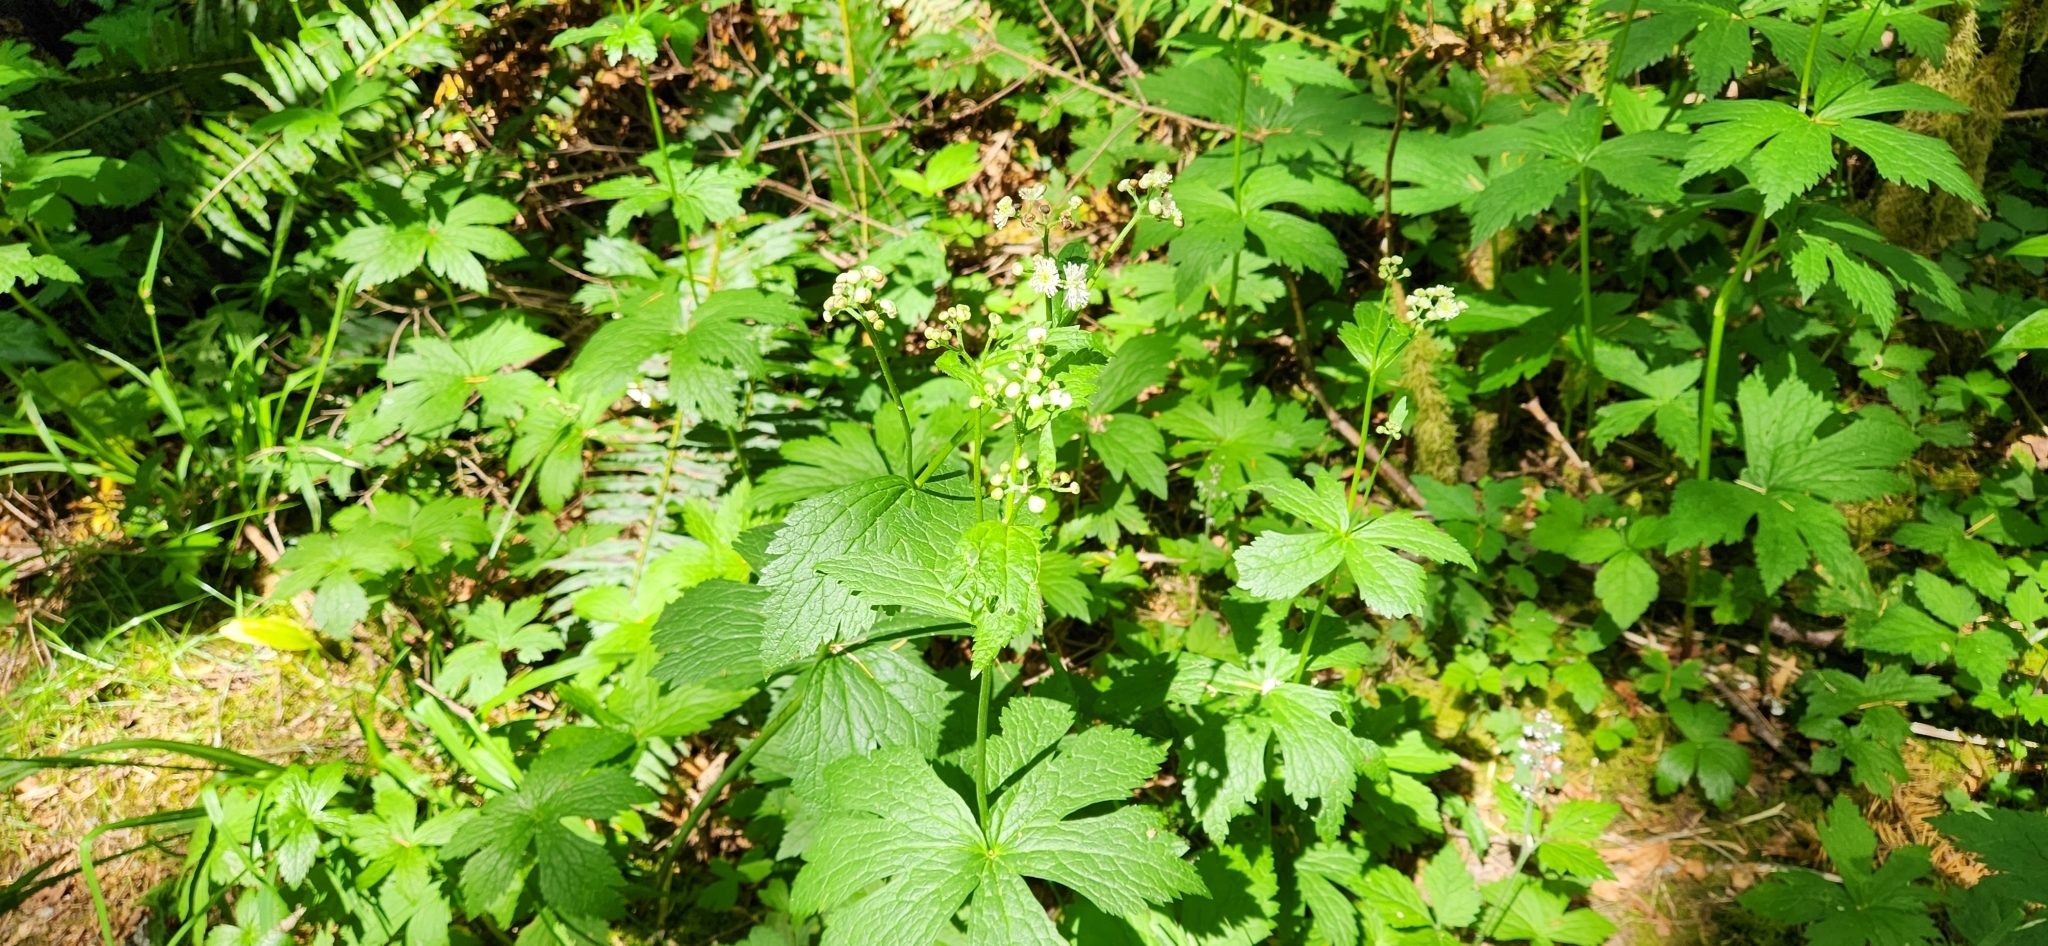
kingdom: Plantae
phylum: Tracheophyta
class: Magnoliopsida
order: Ranunculales
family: Ranunculaceae
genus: Trautvetteria
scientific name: Trautvetteria carolinensis
